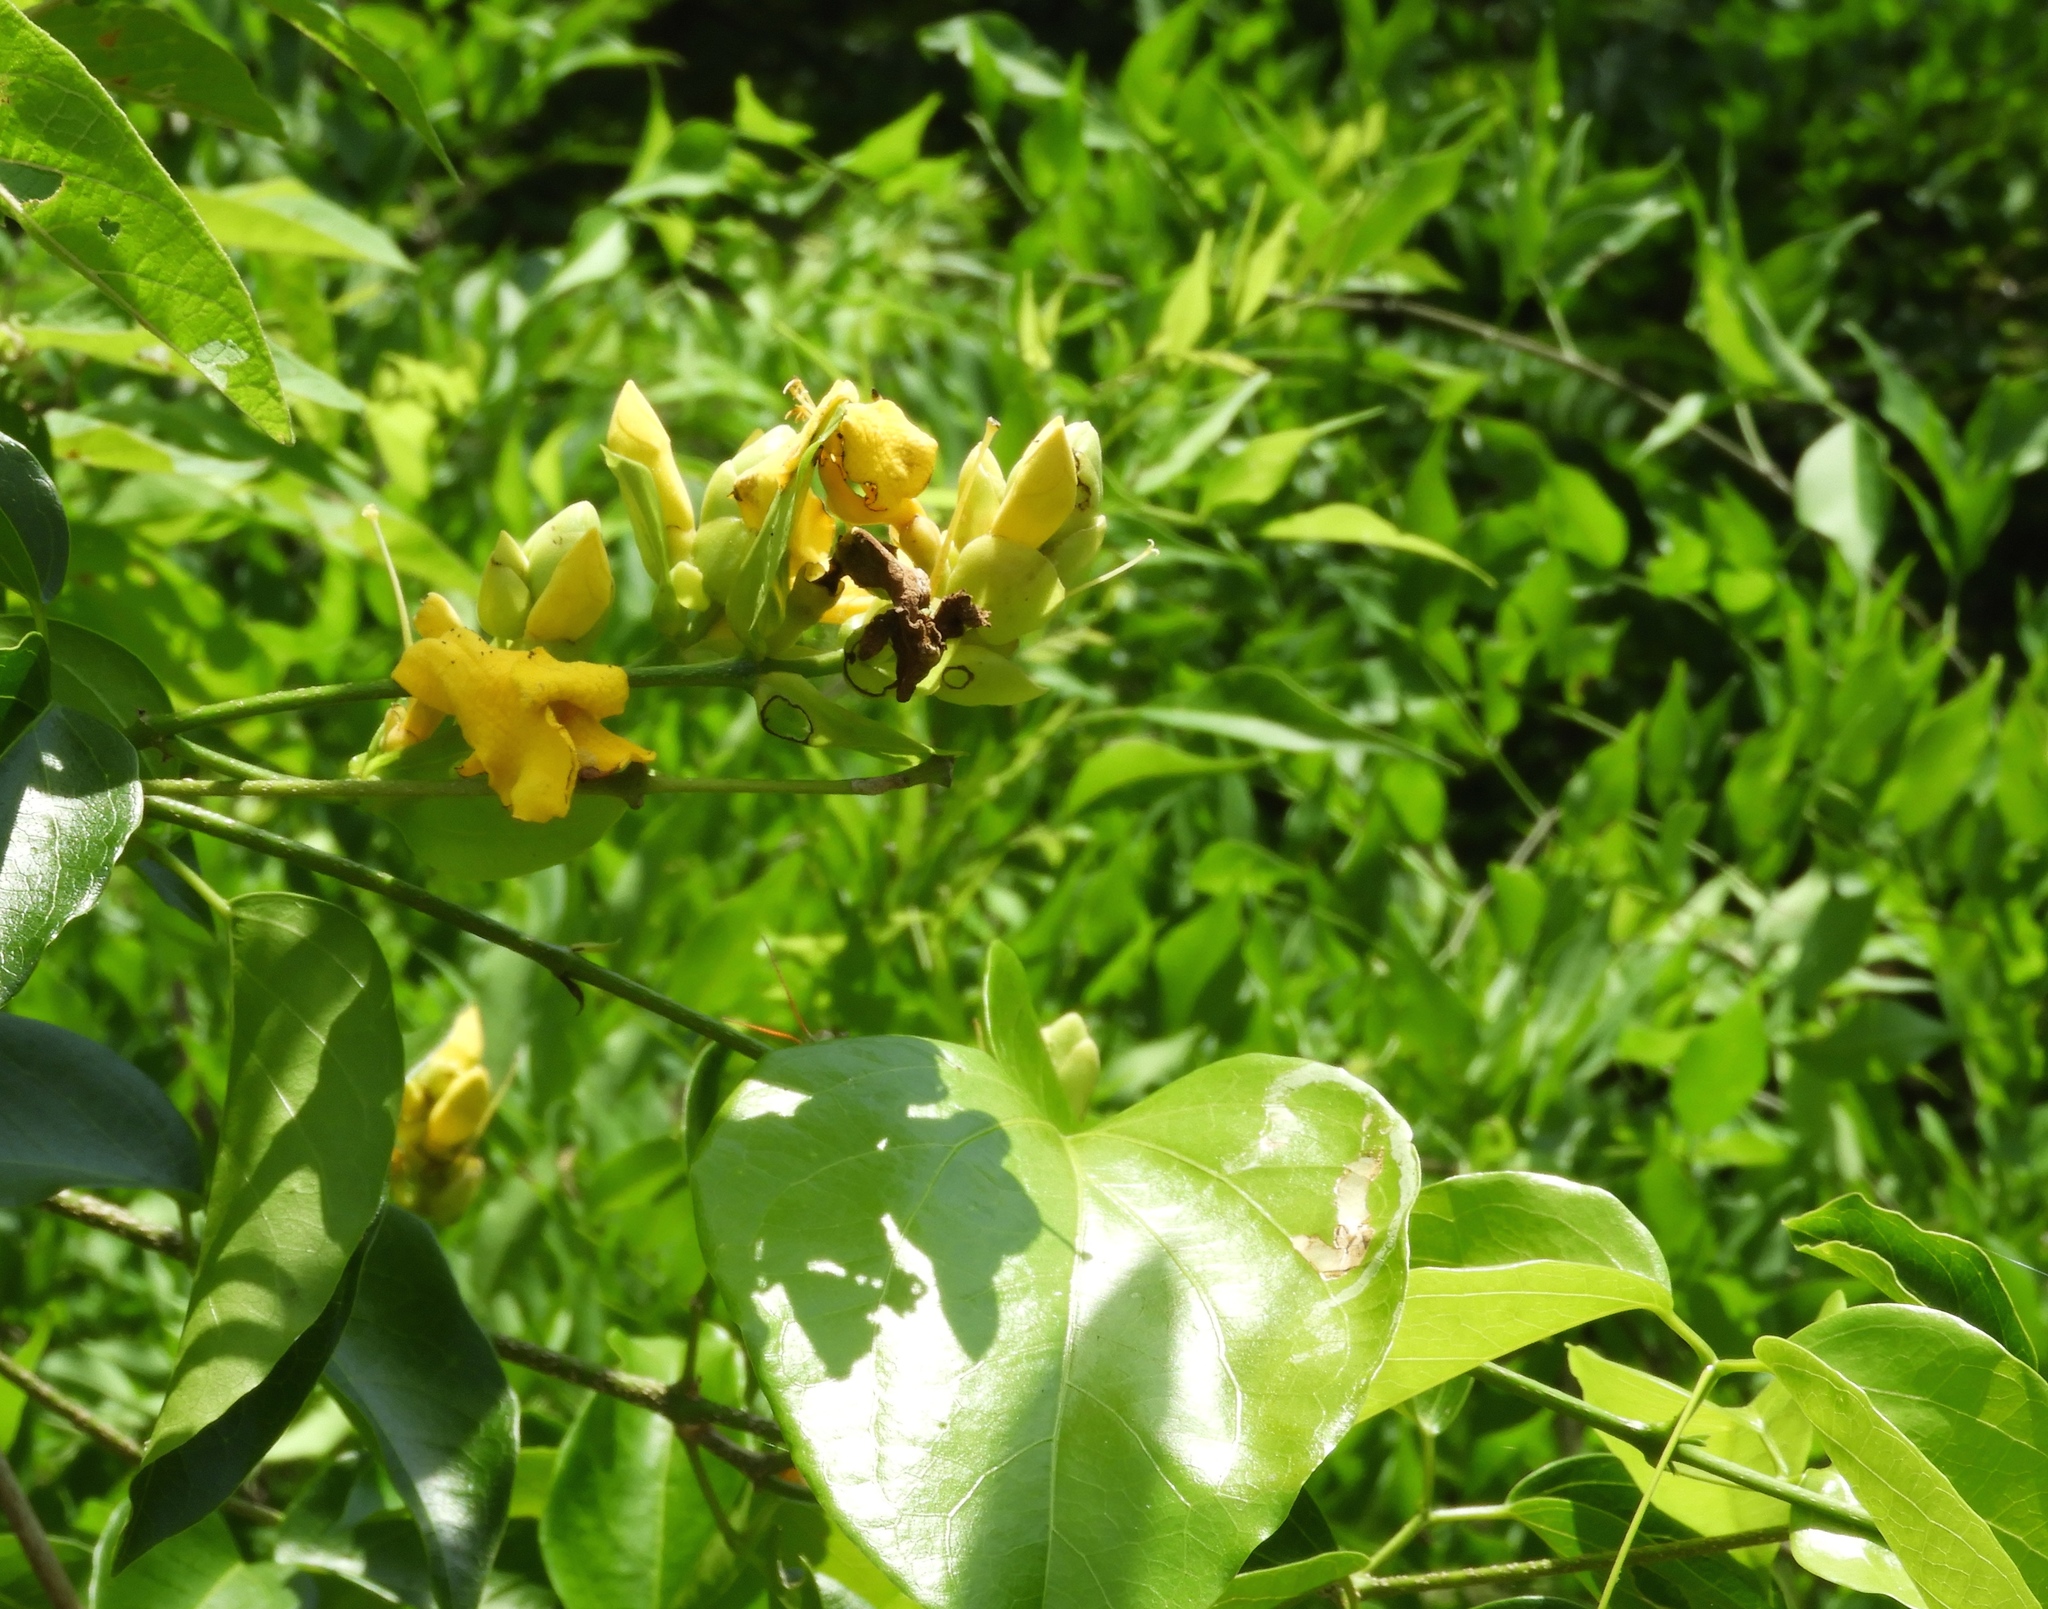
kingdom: Plantae
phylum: Tracheophyta
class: Magnoliopsida
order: Lamiales
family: Bignoniaceae
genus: Adenocalymma
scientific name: Adenocalymma inundatum
